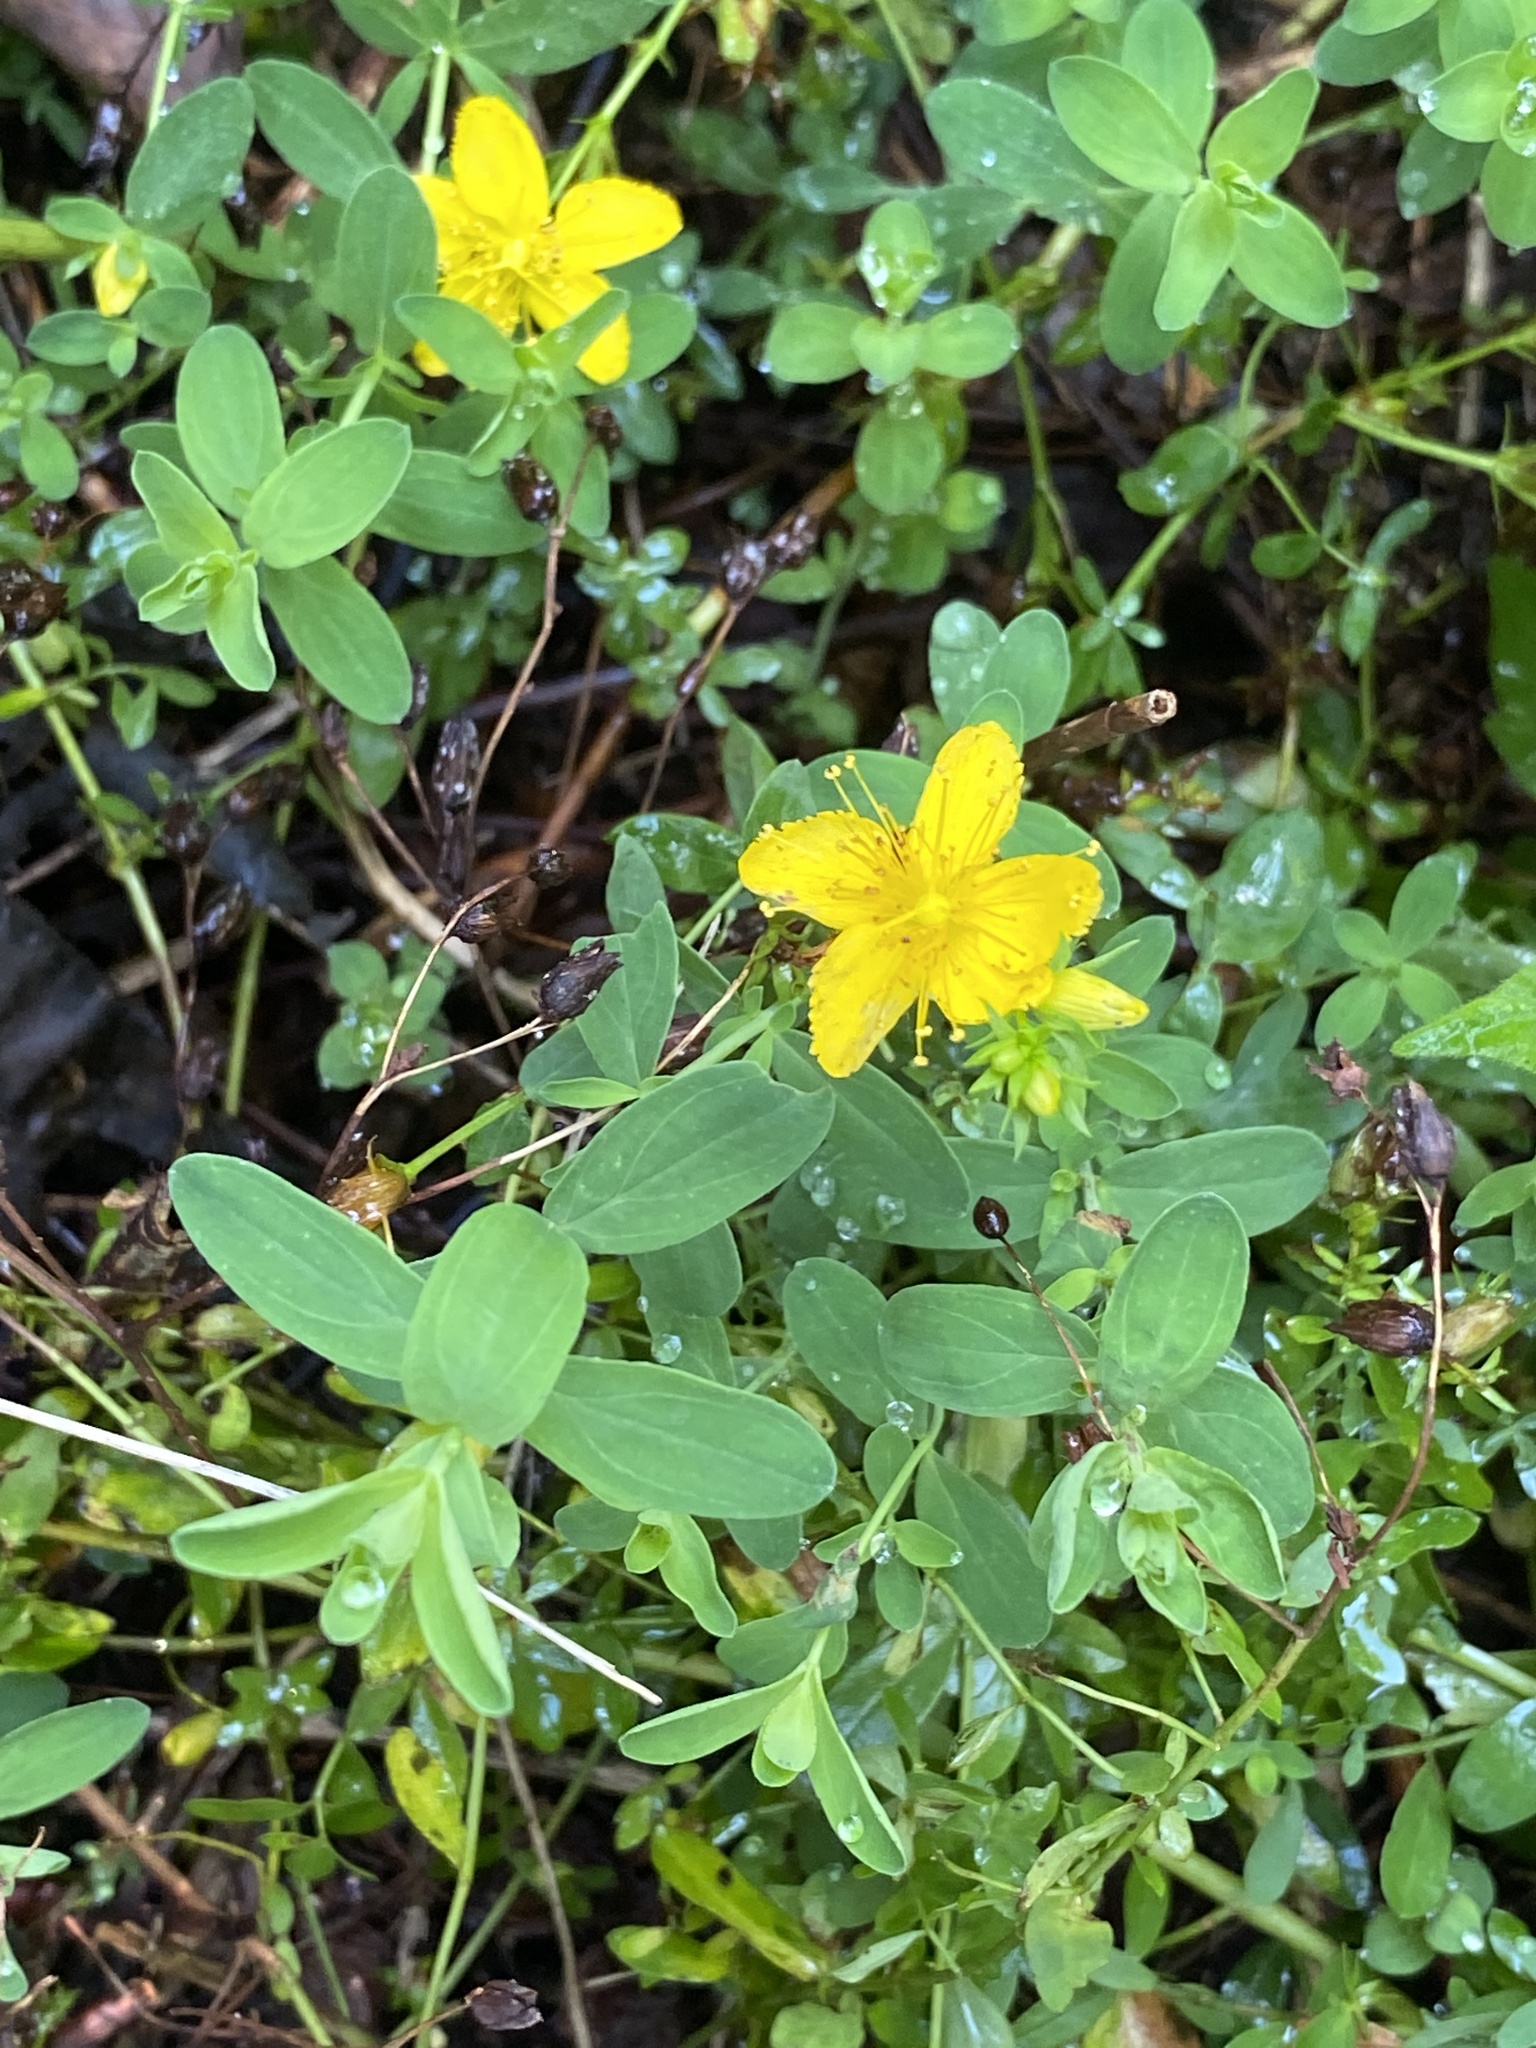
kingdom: Plantae
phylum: Tracheophyta
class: Magnoliopsida
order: Malpighiales
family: Hypericaceae
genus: Hypericum
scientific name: Hypericum perforatum
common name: Common st. johnswort
